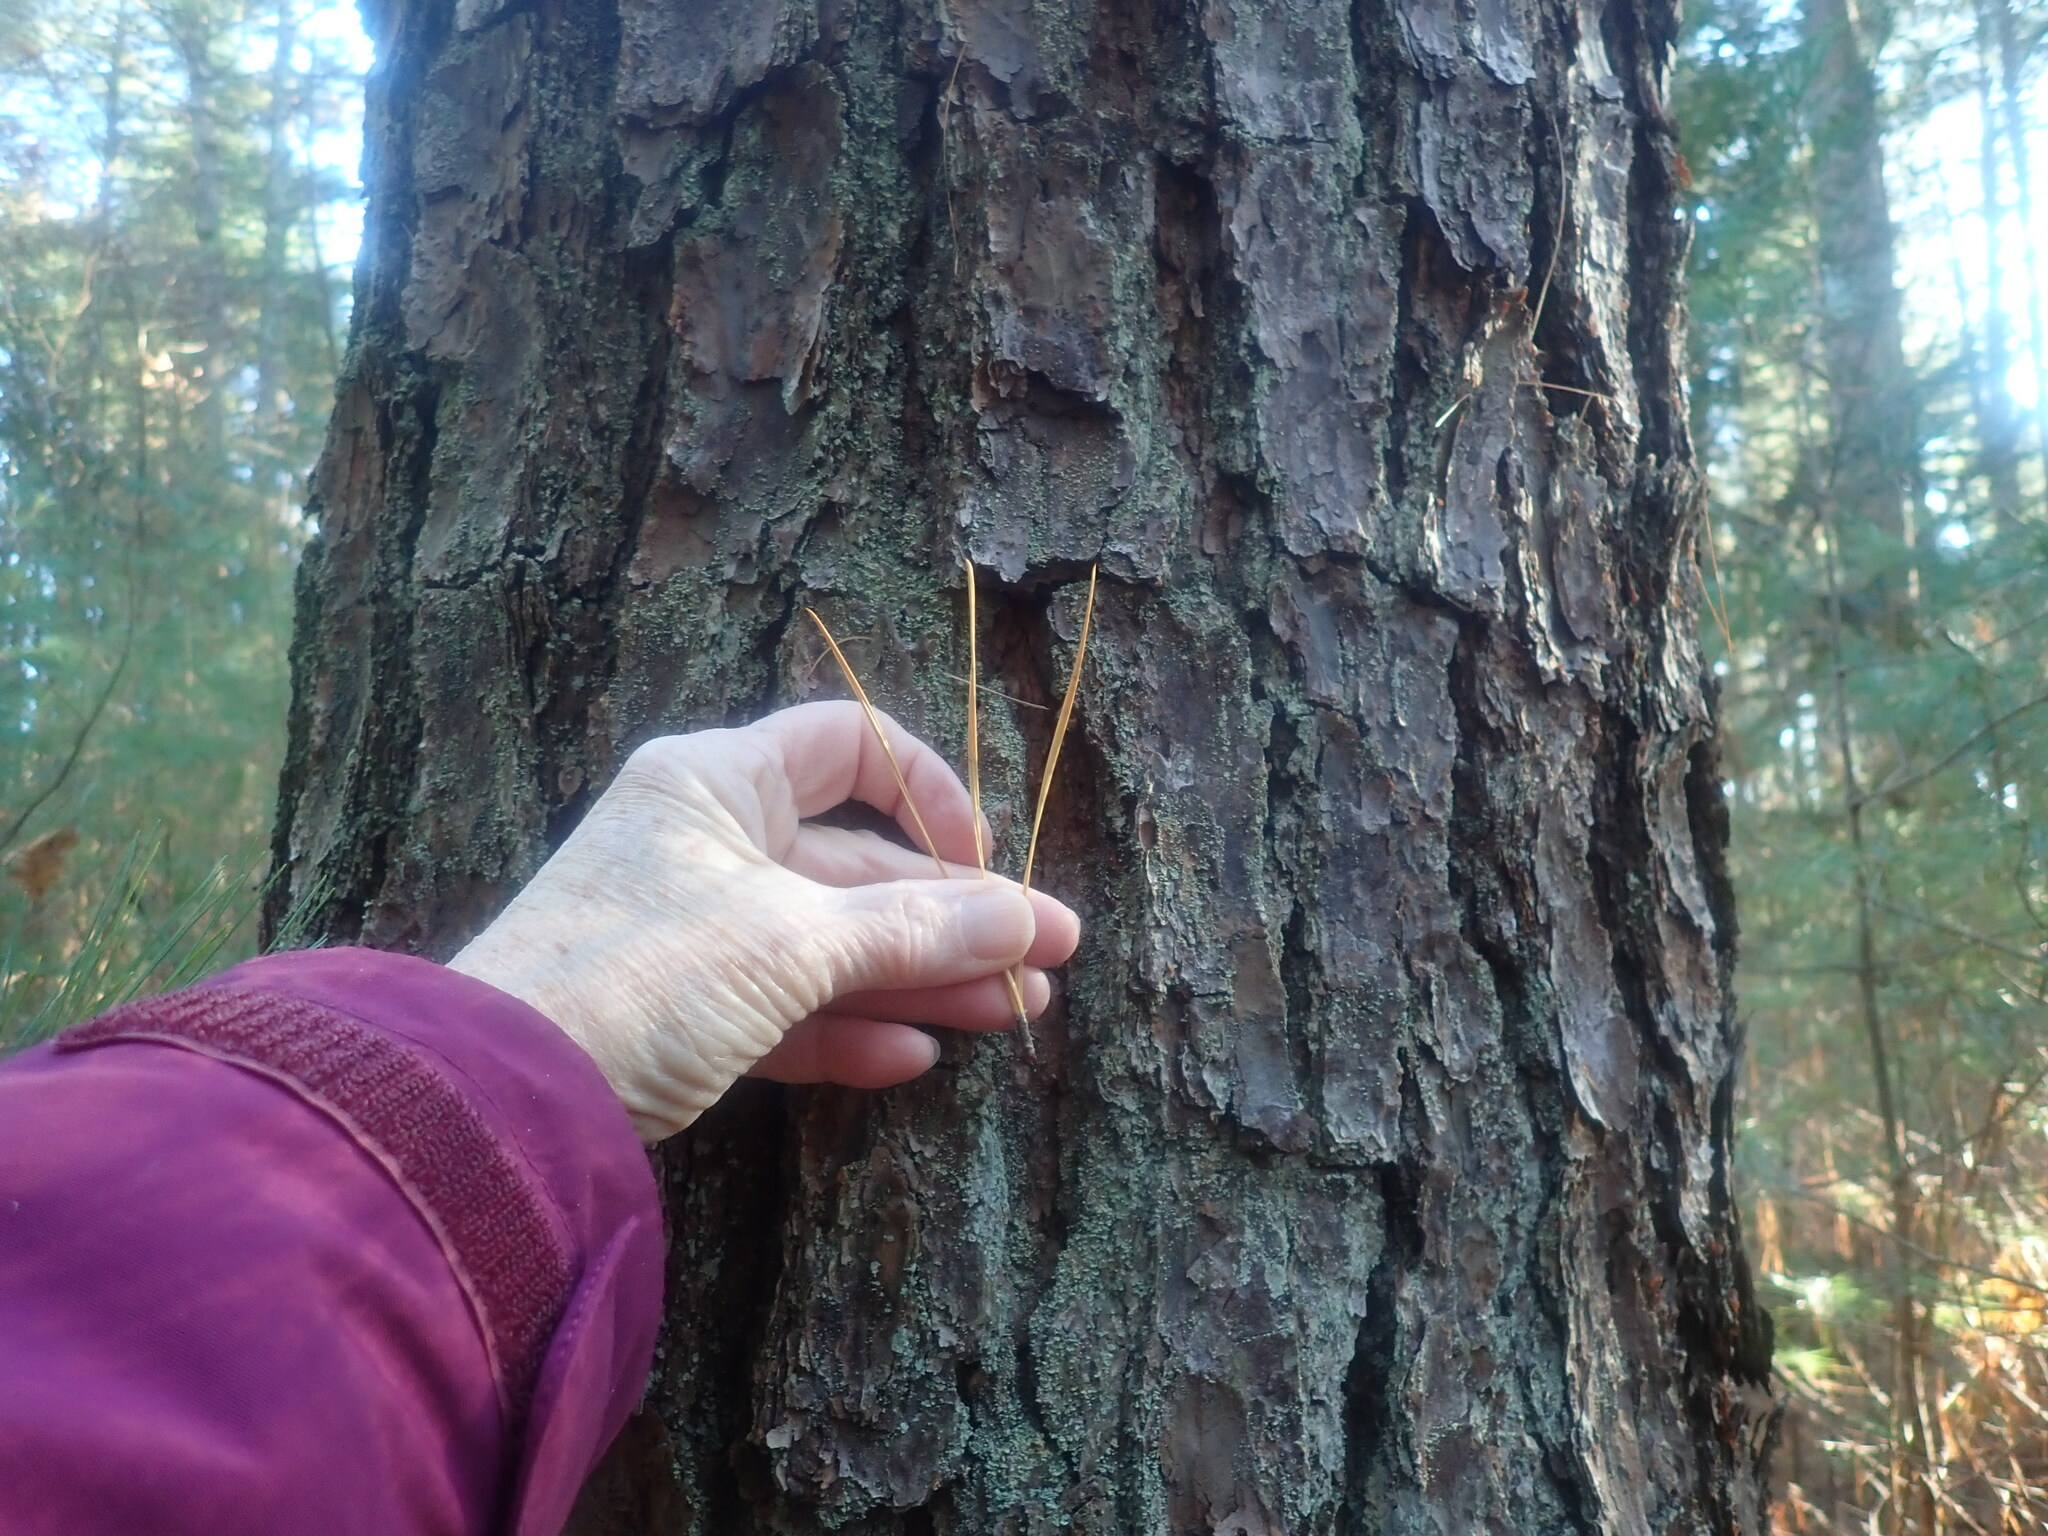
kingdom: Plantae
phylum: Tracheophyta
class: Pinopsida
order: Pinales
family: Pinaceae
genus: Pinus
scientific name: Pinus rigida
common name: Pitch pine
